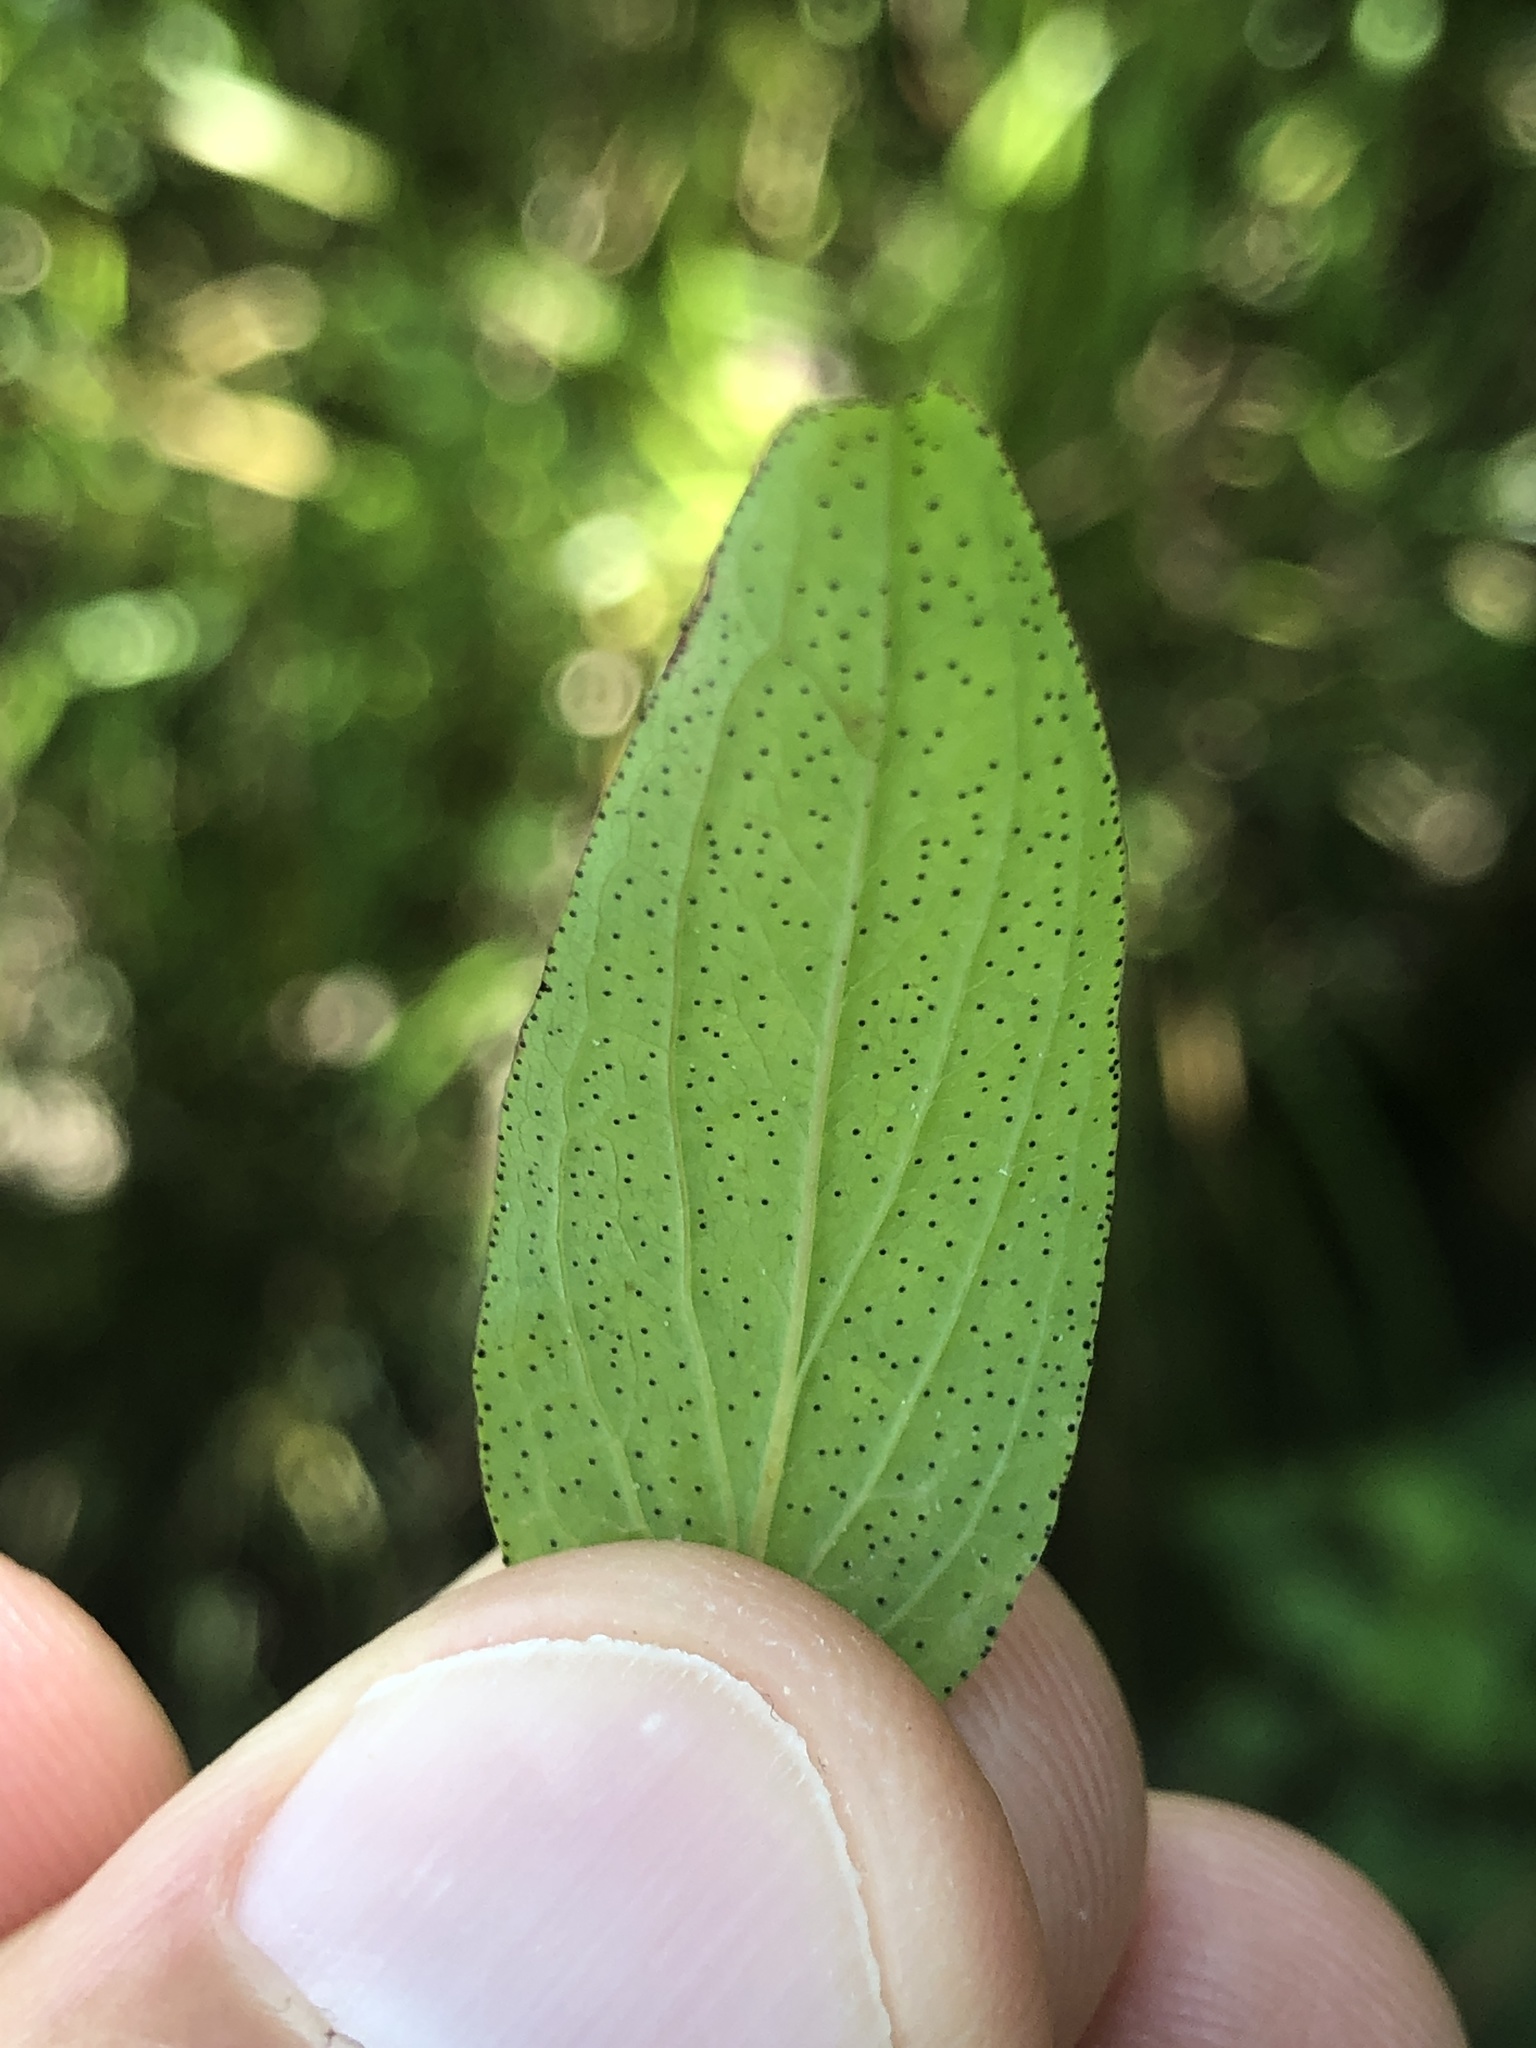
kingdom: Plantae
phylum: Tracheophyta
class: Magnoliopsida
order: Malpighiales
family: Hypericaceae
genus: Hypericum
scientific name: Hypericum punctatum
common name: Spotted st. john's-wort
